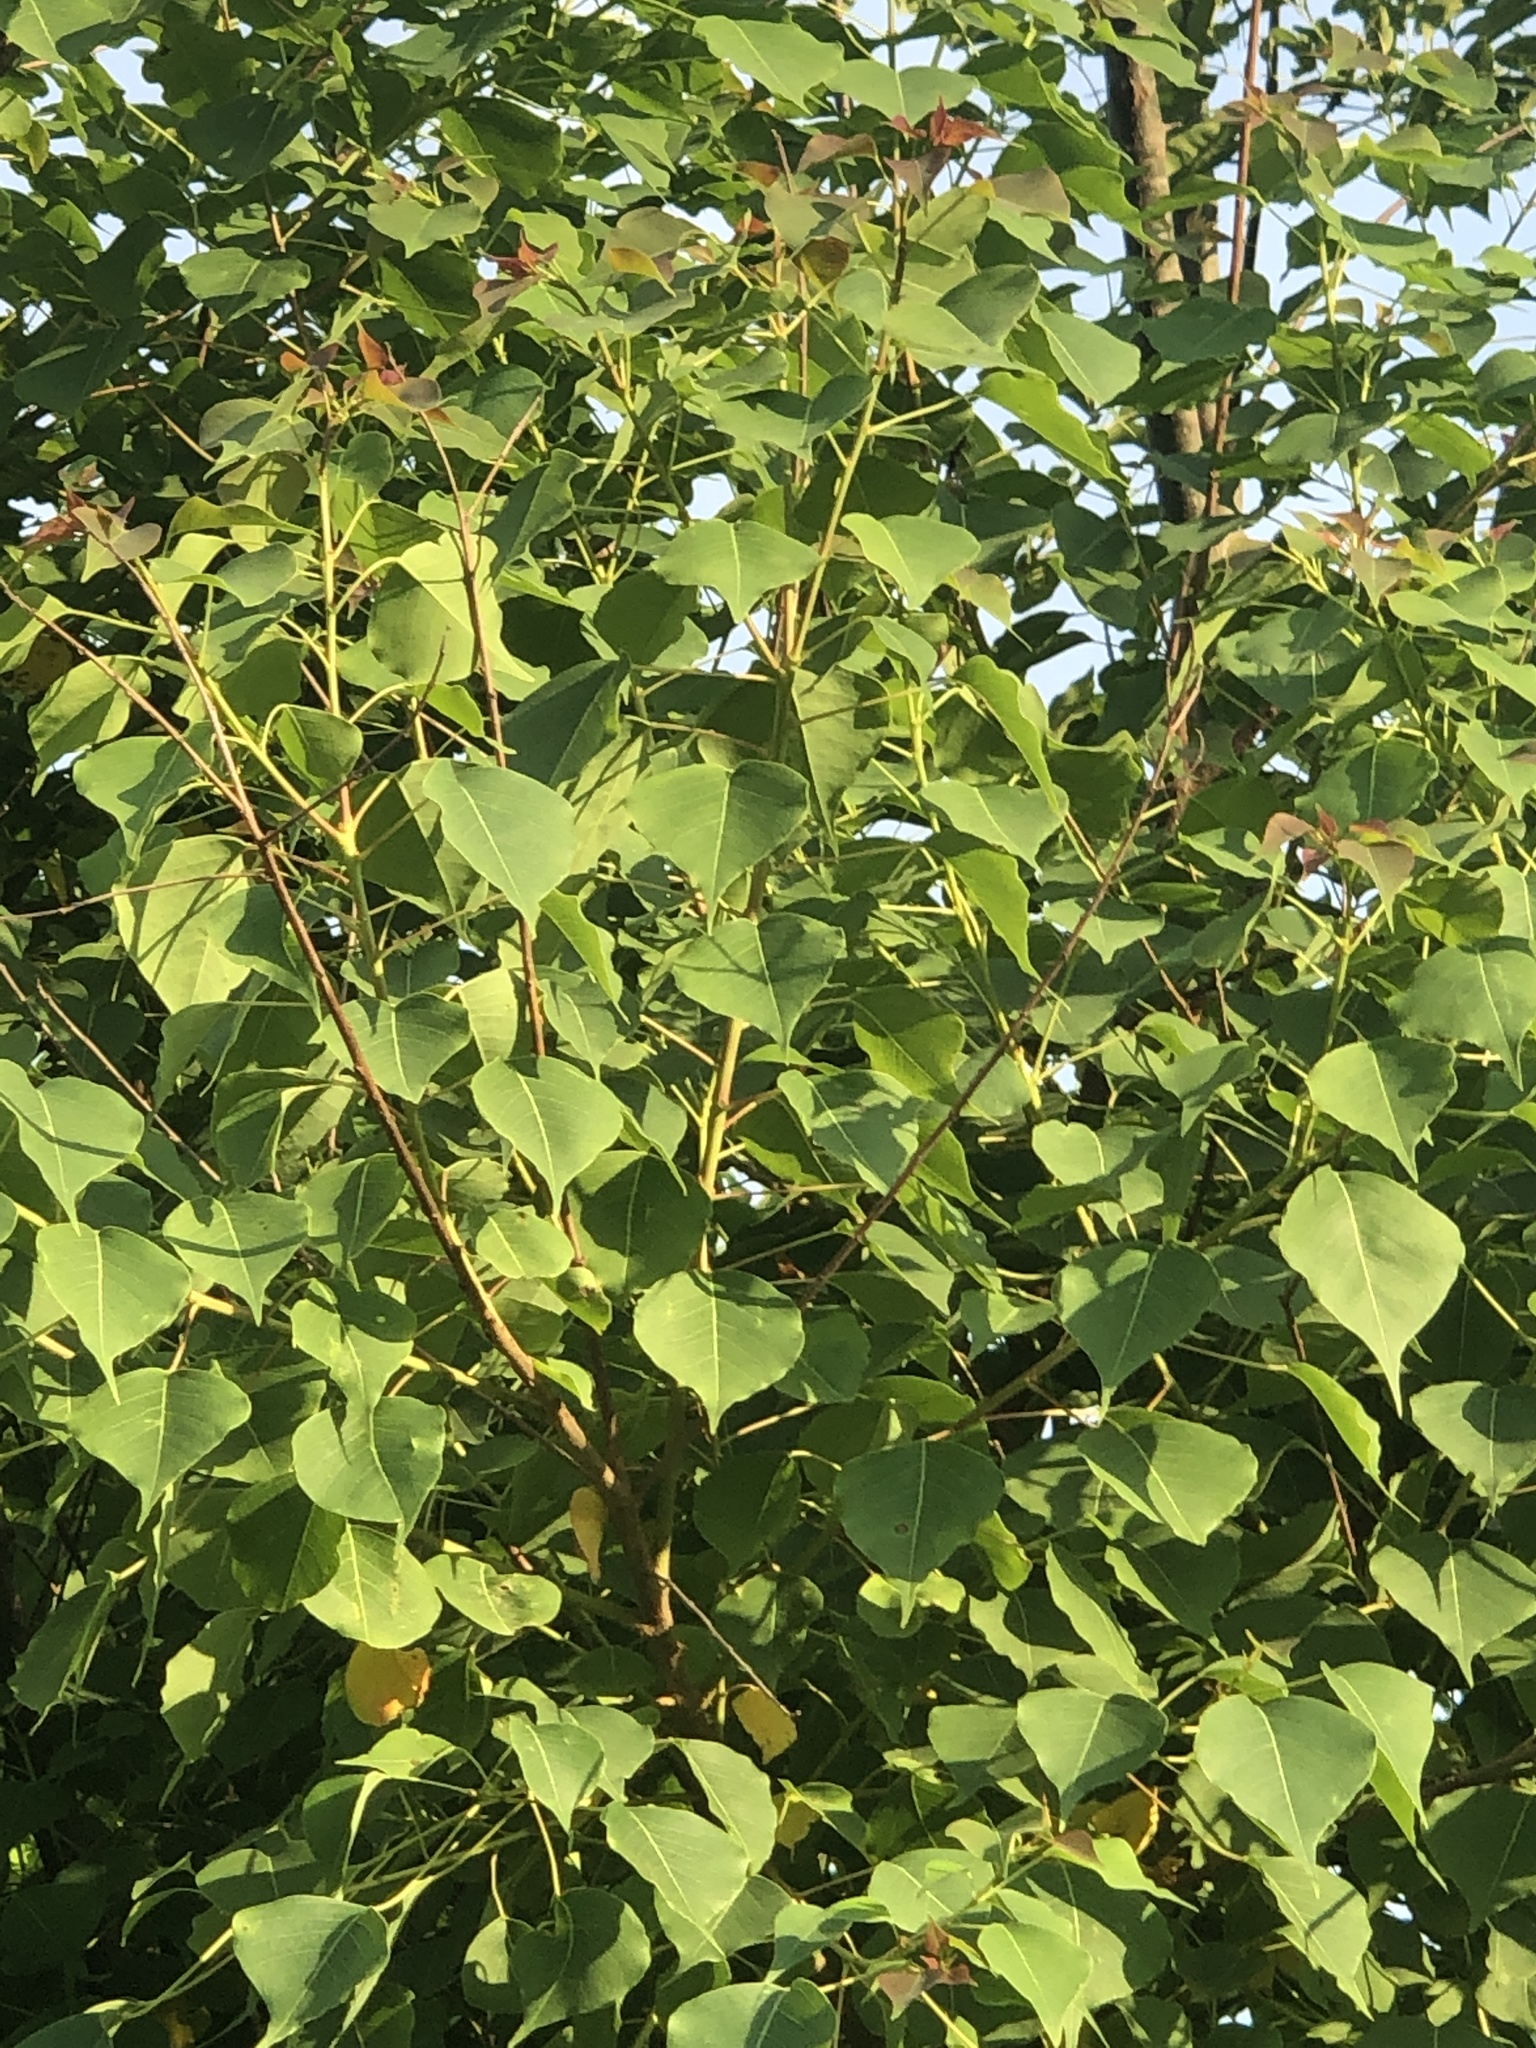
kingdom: Plantae
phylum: Tracheophyta
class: Magnoliopsida
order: Malpighiales
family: Euphorbiaceae
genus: Triadica
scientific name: Triadica sebifera
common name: Chinese tallow
